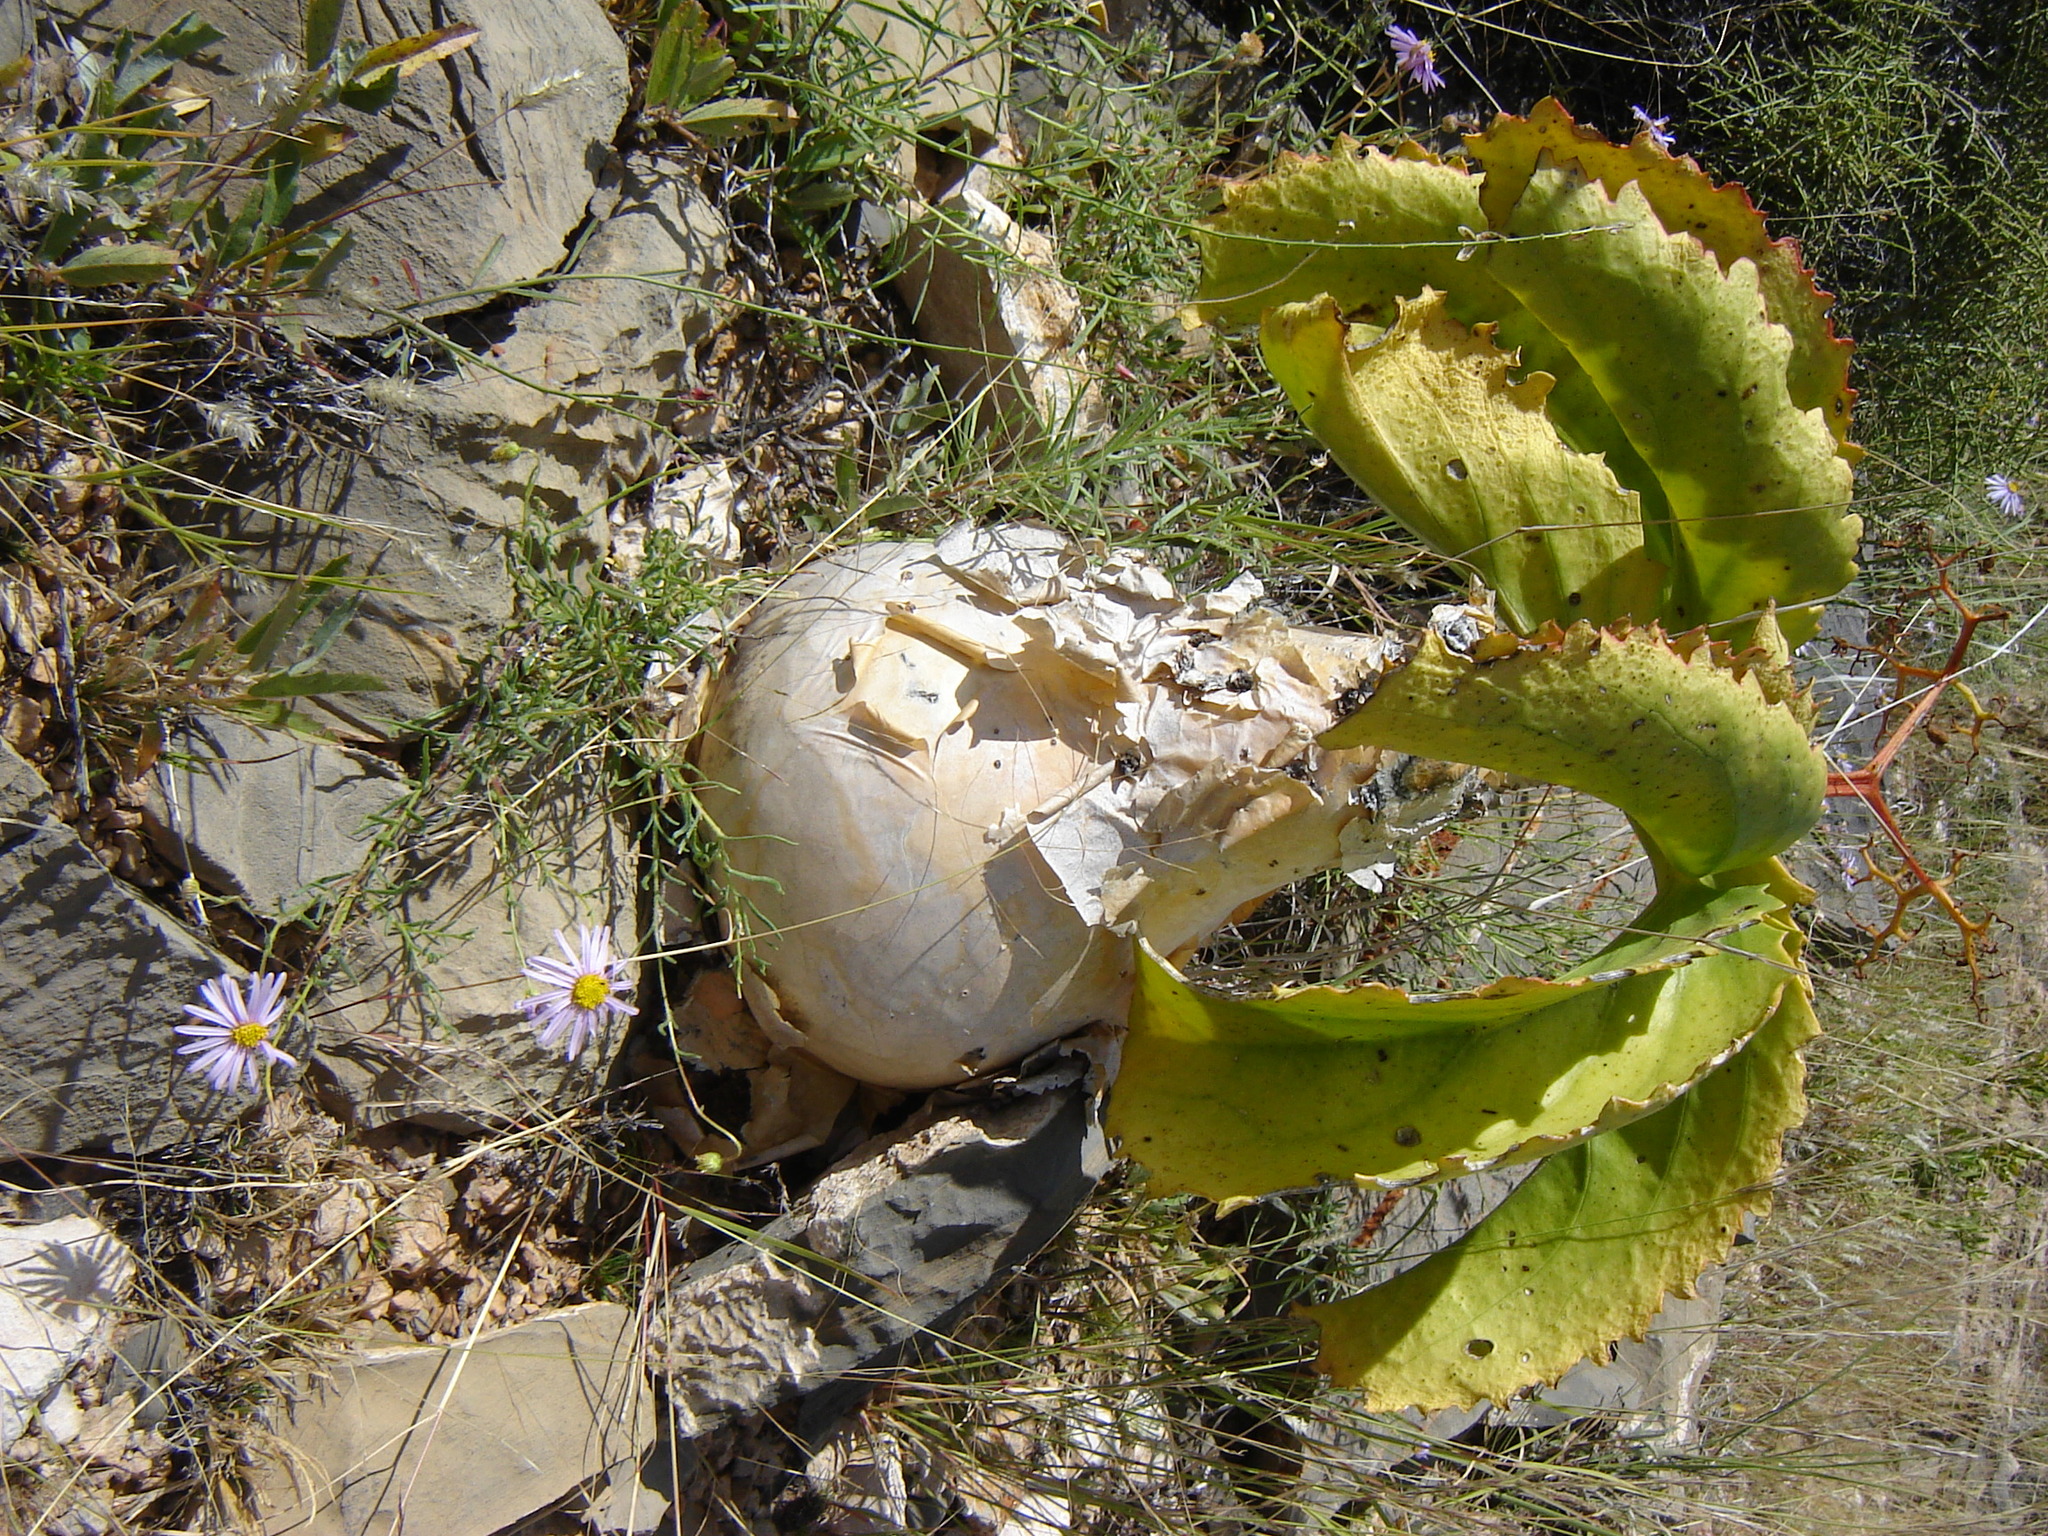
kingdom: Plantae
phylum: Tracheophyta
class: Magnoliopsida
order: Vitales
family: Vitaceae
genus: Cyphostemma
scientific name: Cyphostemma bainesii
